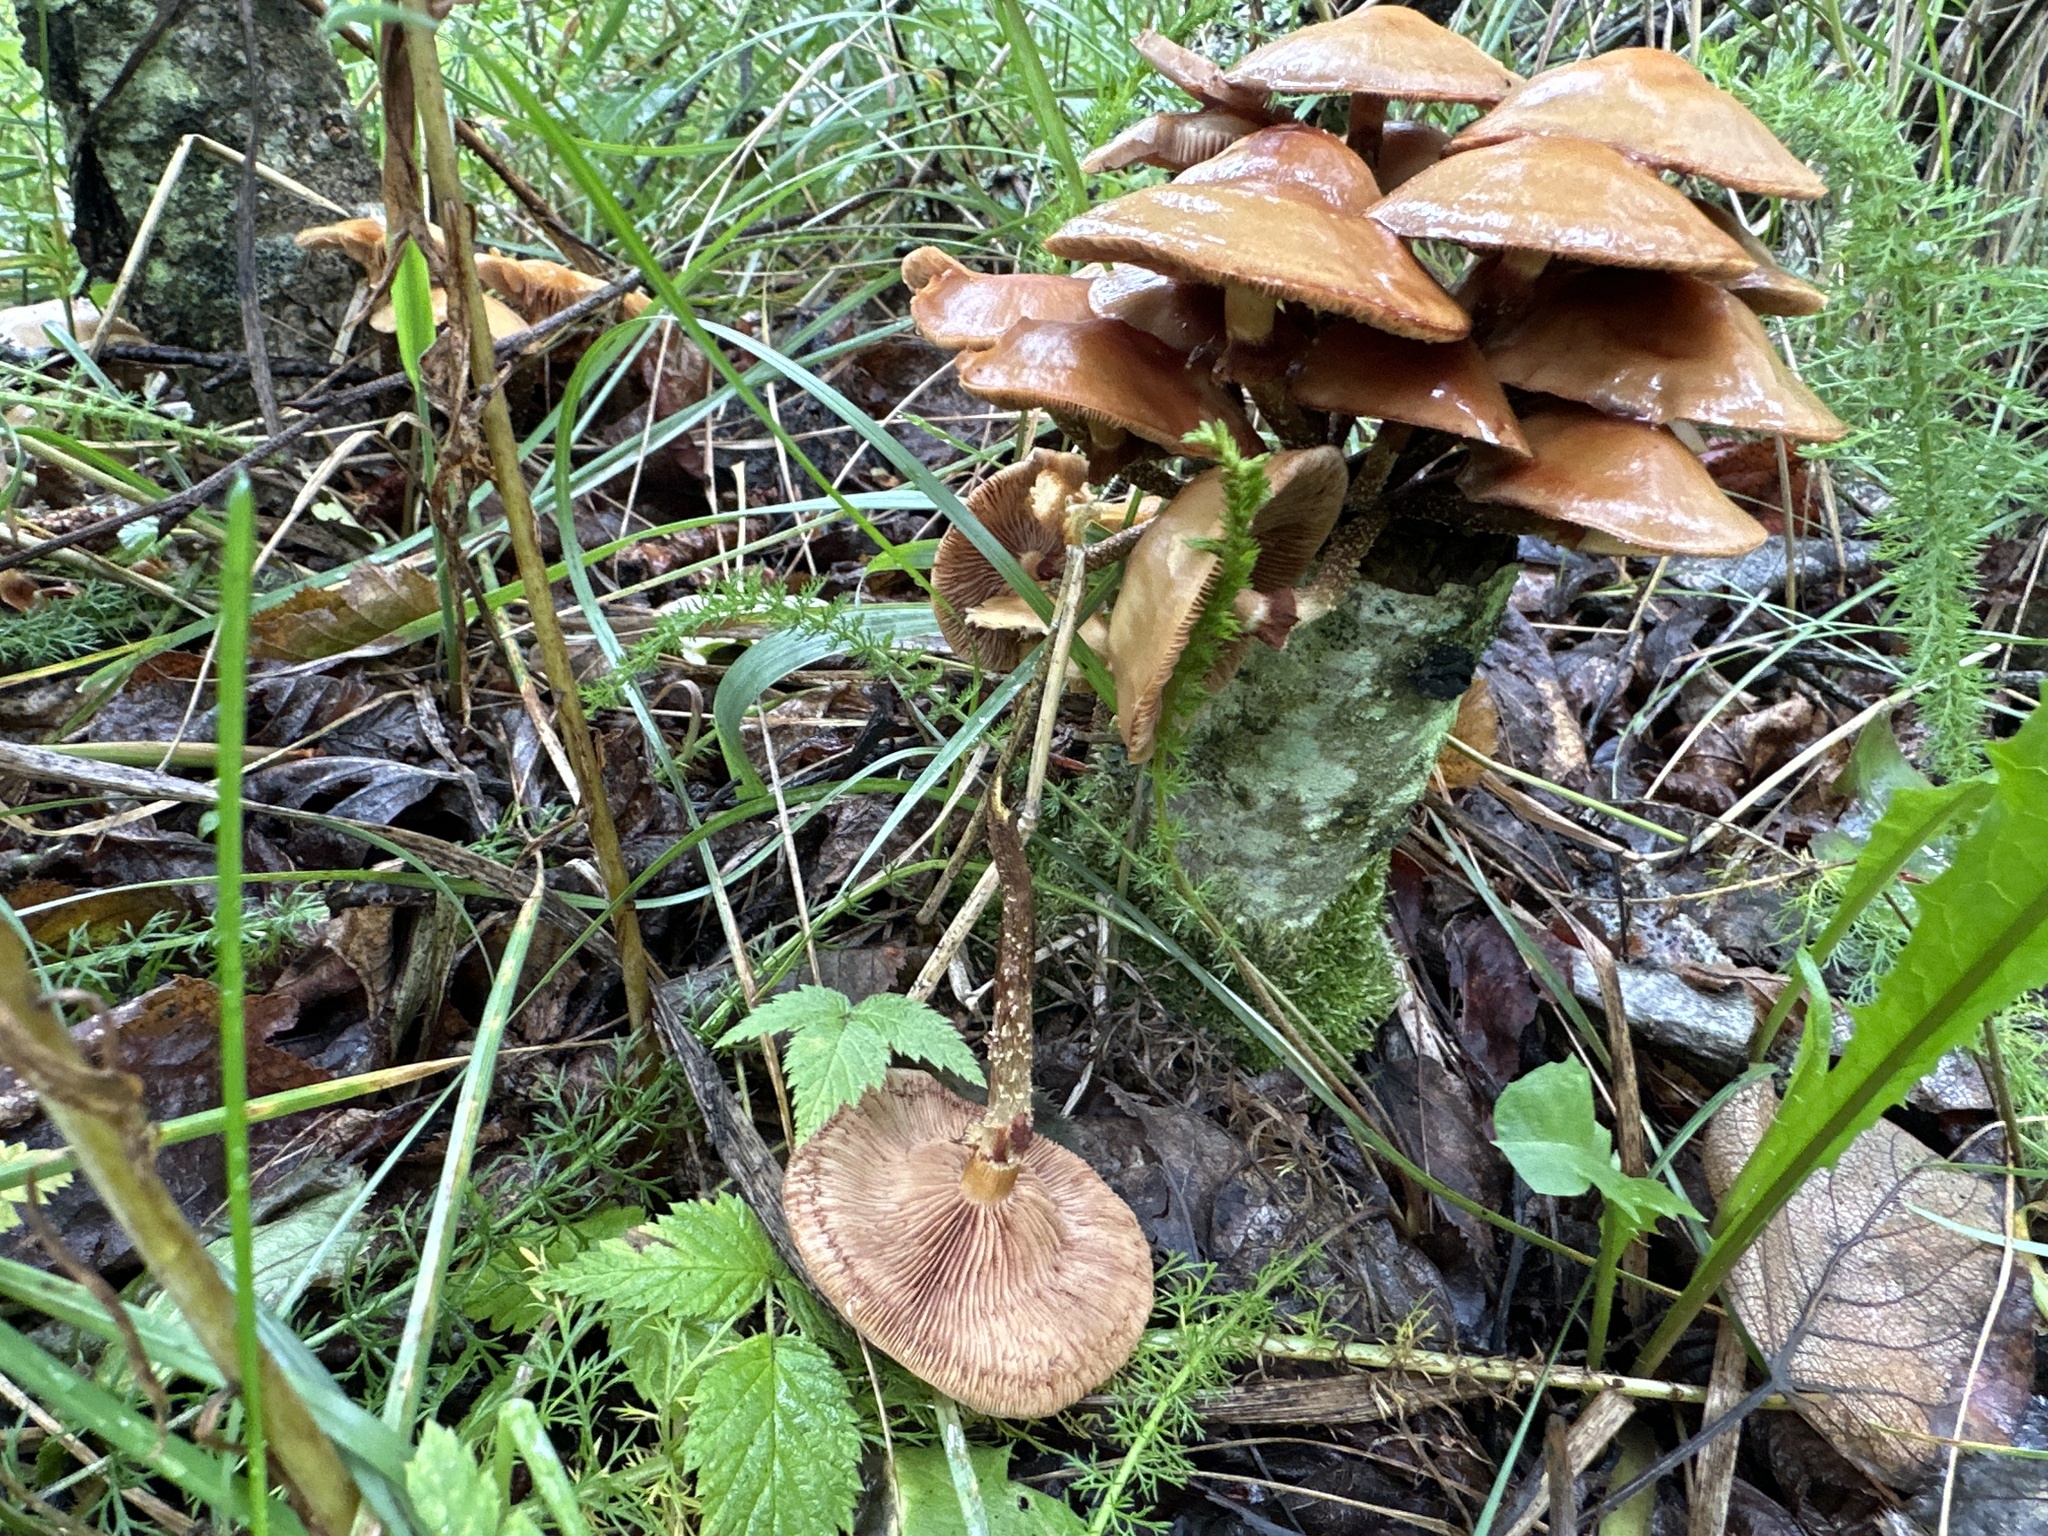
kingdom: Fungi
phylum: Basidiomycota
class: Agaricomycetes
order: Agaricales
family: Strophariaceae
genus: Kuehneromyces
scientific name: Kuehneromyces mutabilis
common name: Sheathed woodtuft
